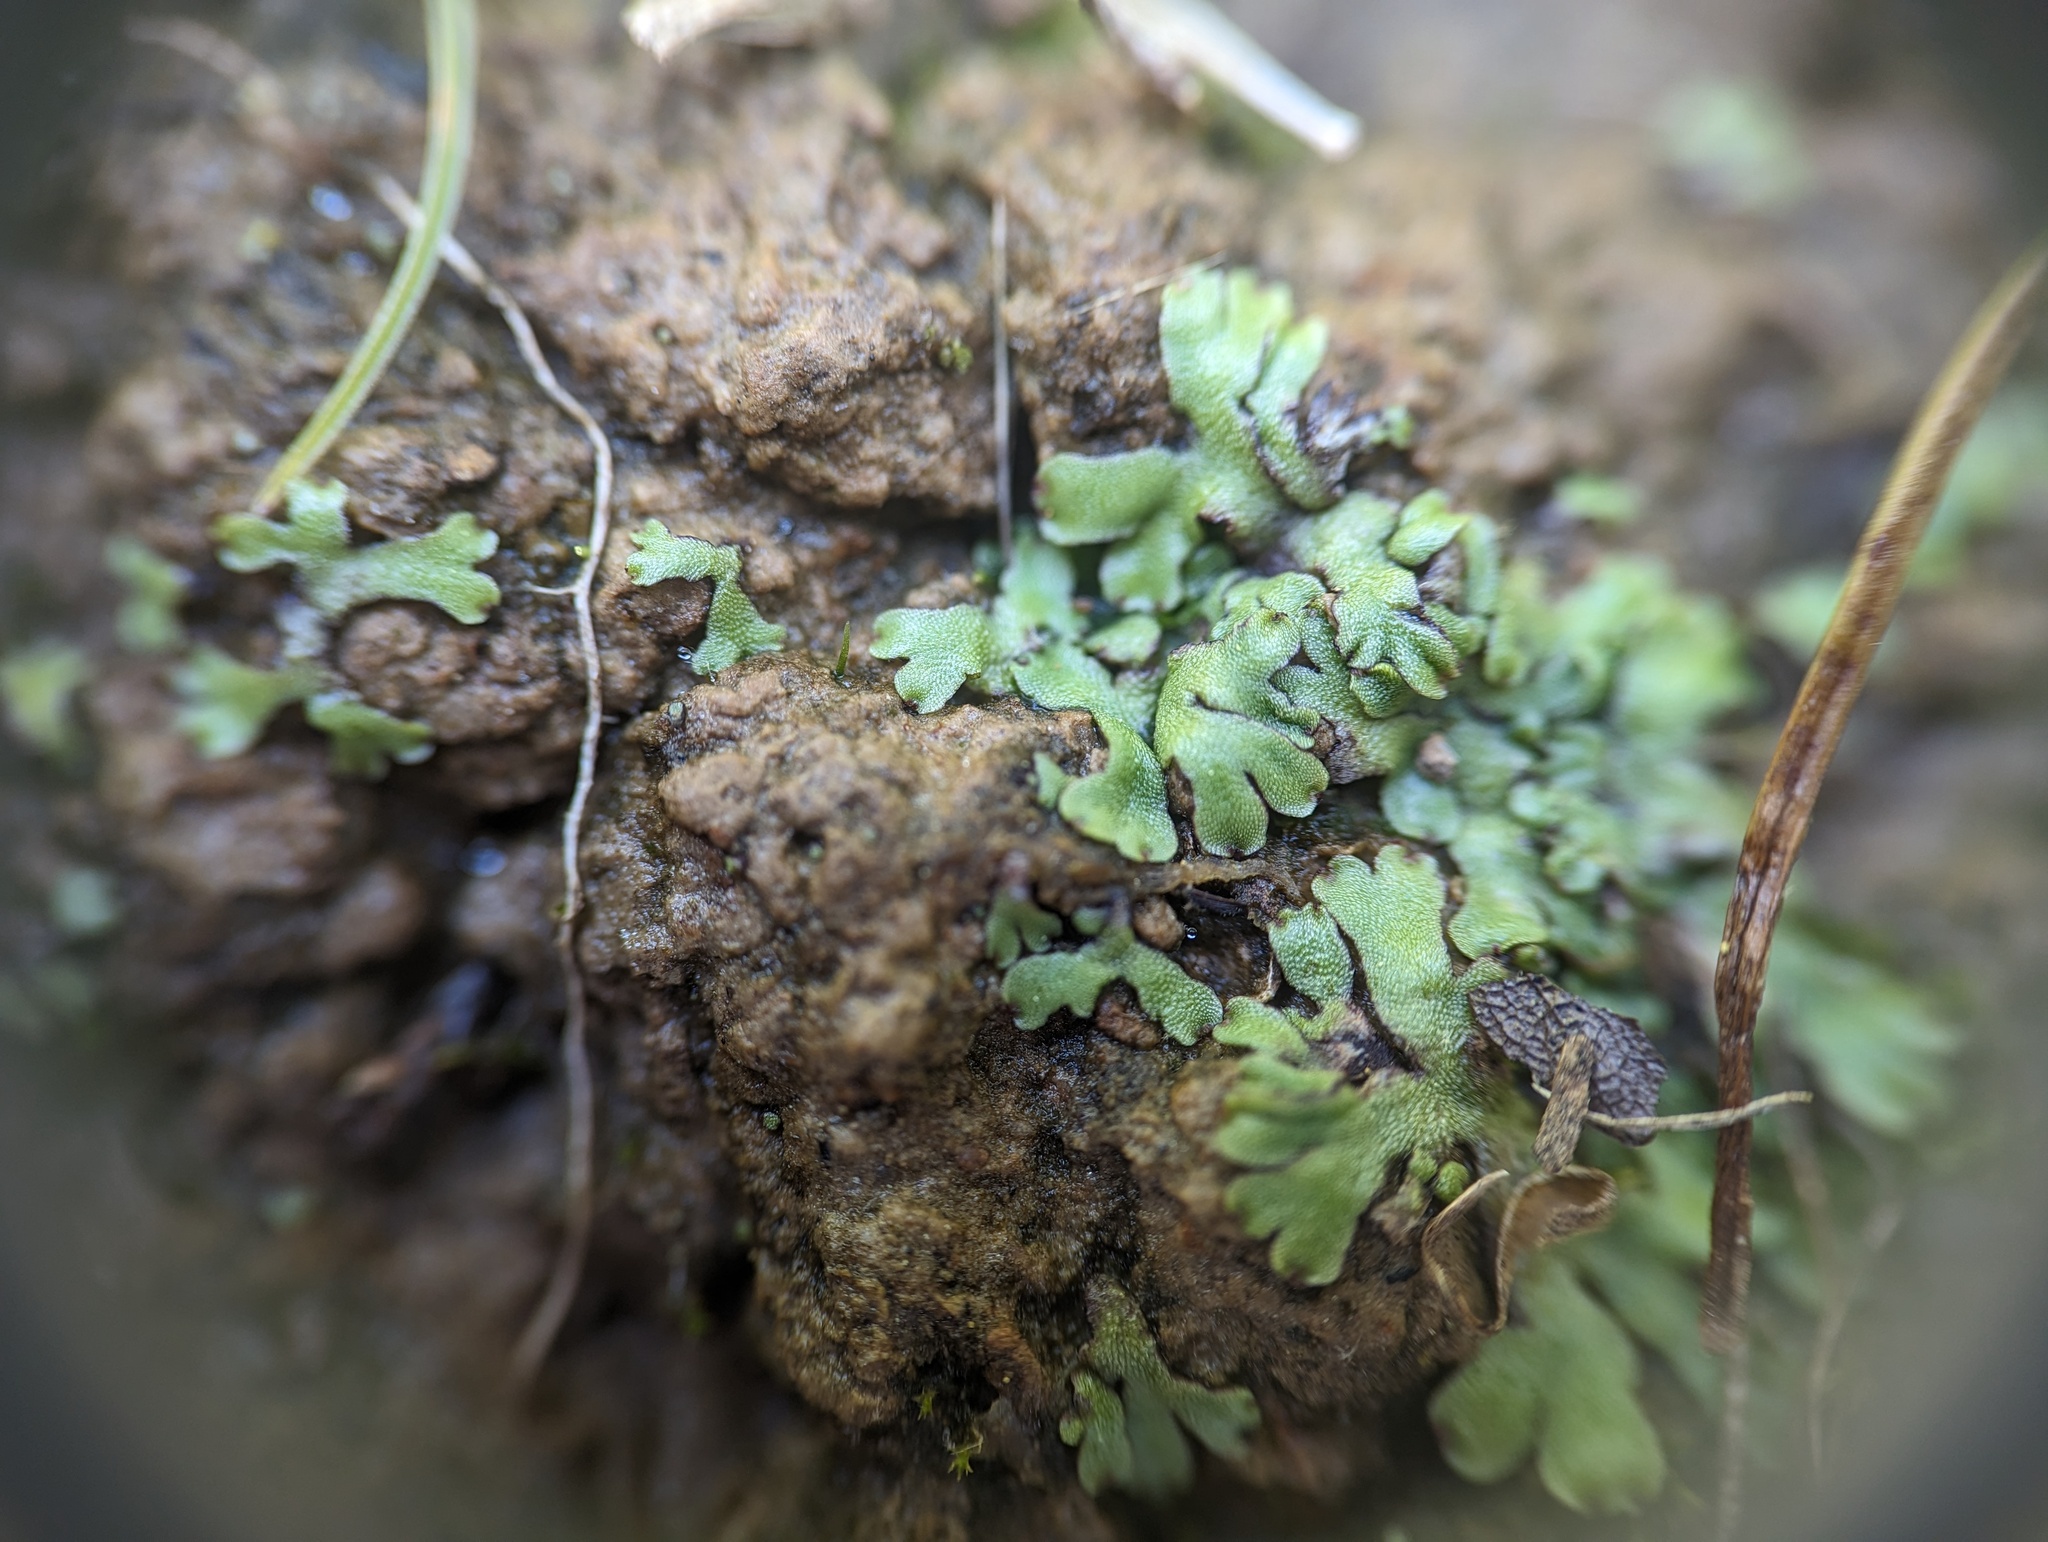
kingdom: Plantae
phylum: Marchantiophyta
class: Marchantiopsida
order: Marchantiales
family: Aytoniaceae
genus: Asterella
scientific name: Asterella tenella
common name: Delicate starwort
